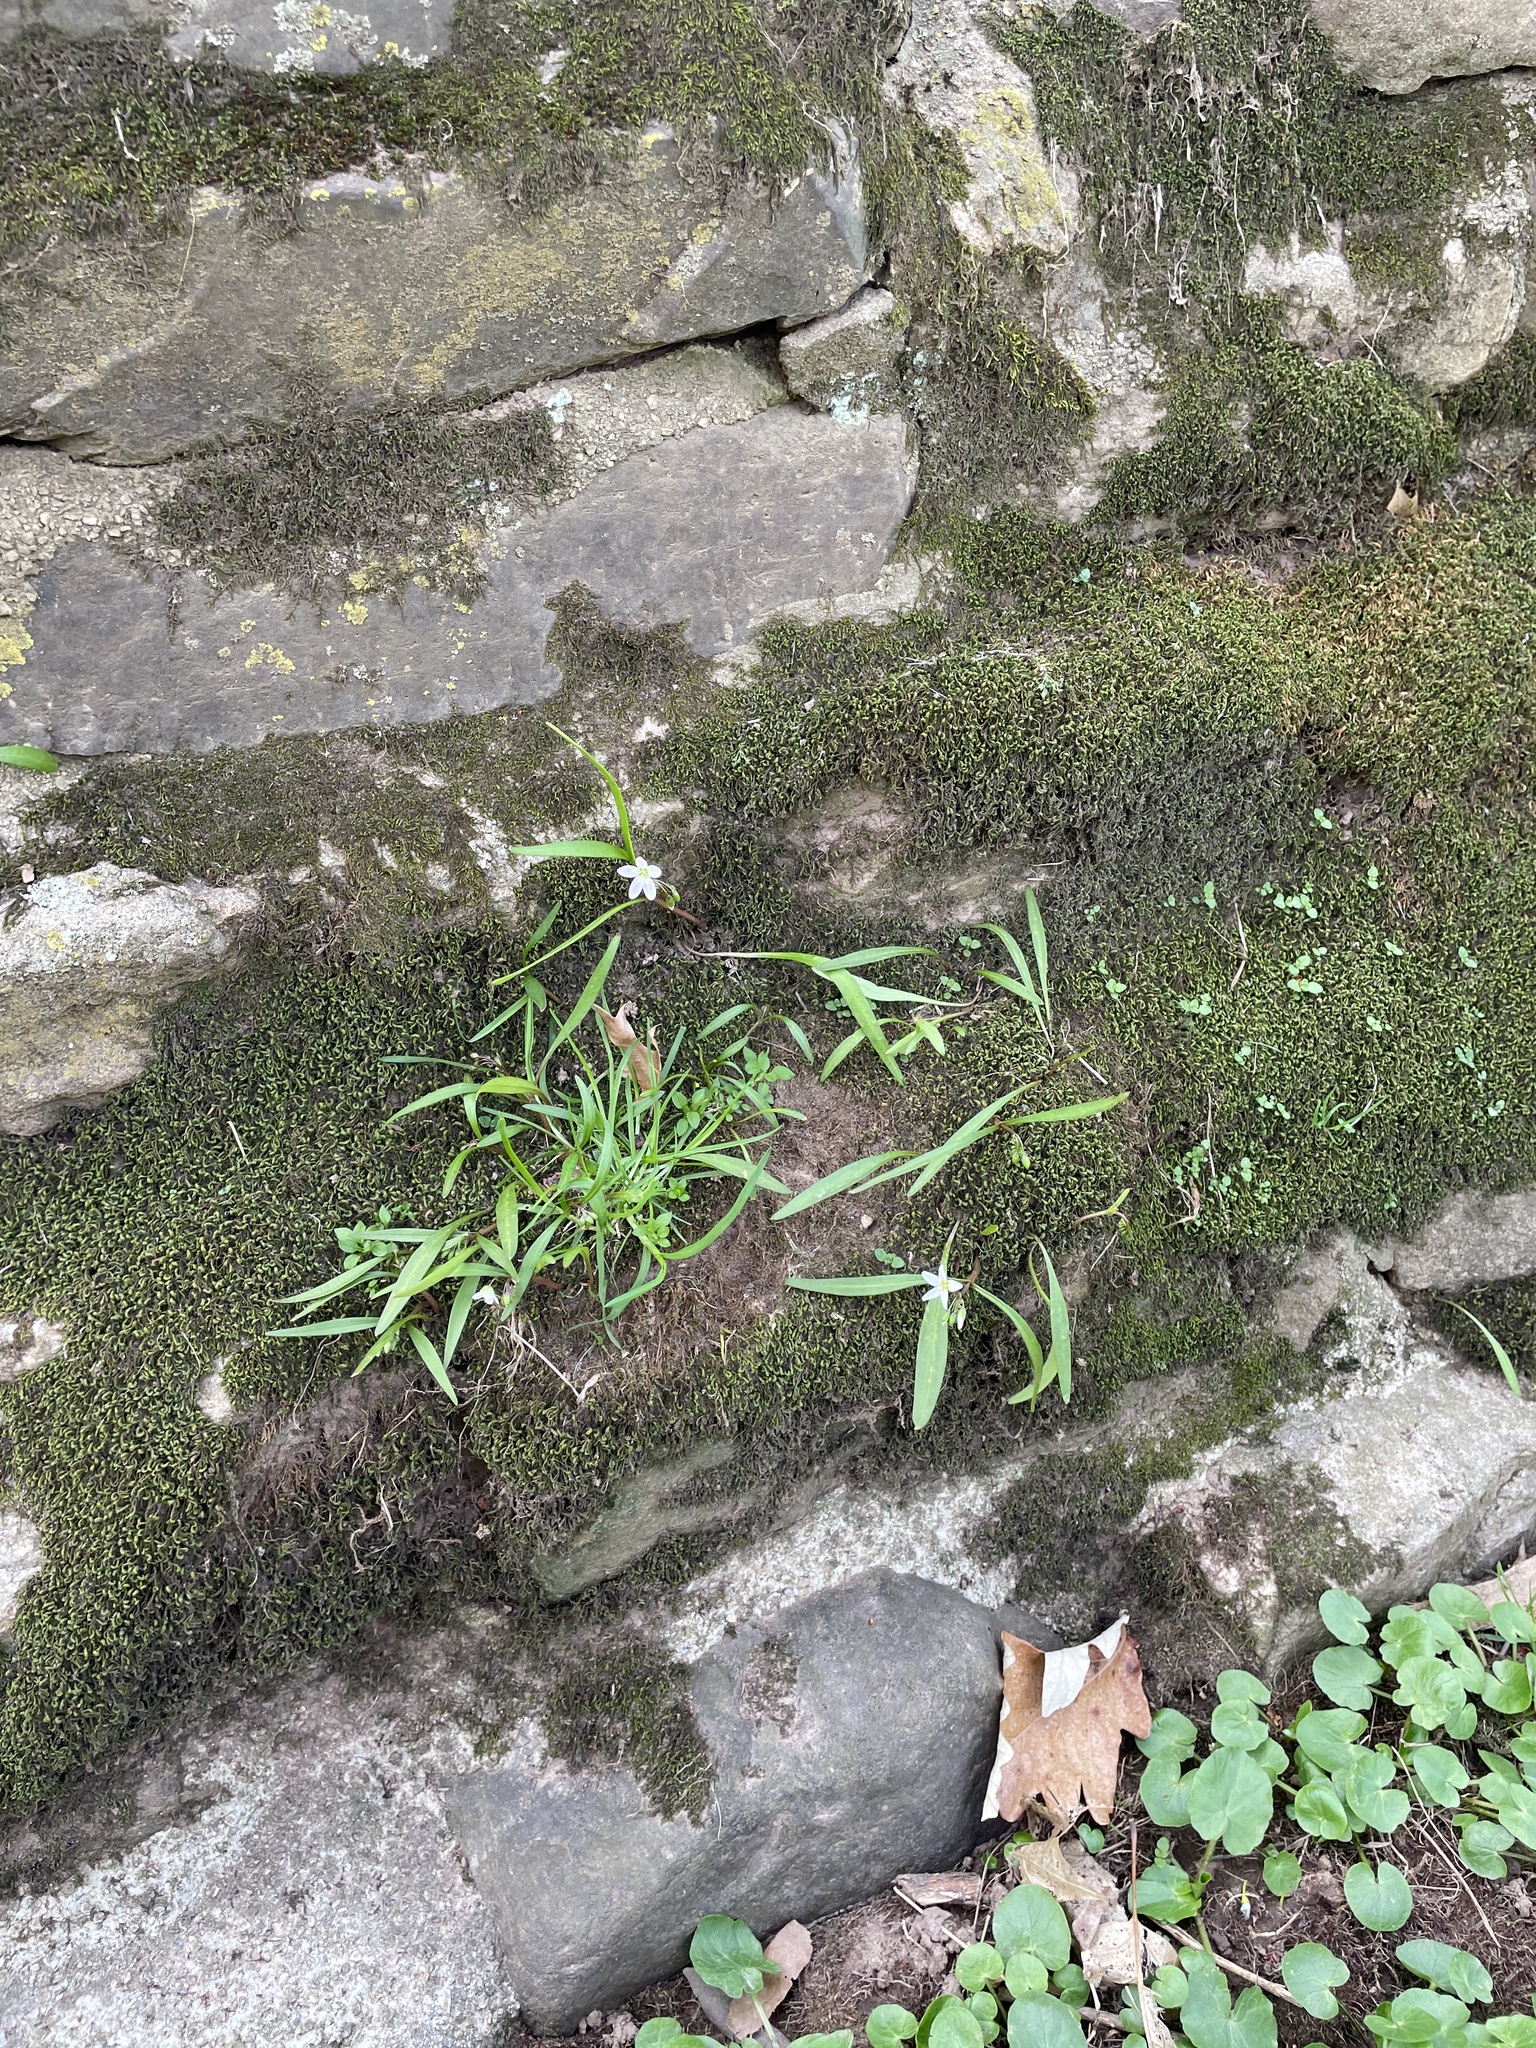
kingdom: Plantae
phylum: Tracheophyta
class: Magnoliopsida
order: Caryophyllales
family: Montiaceae
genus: Claytonia
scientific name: Claytonia virginica
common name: Virginia springbeauty
